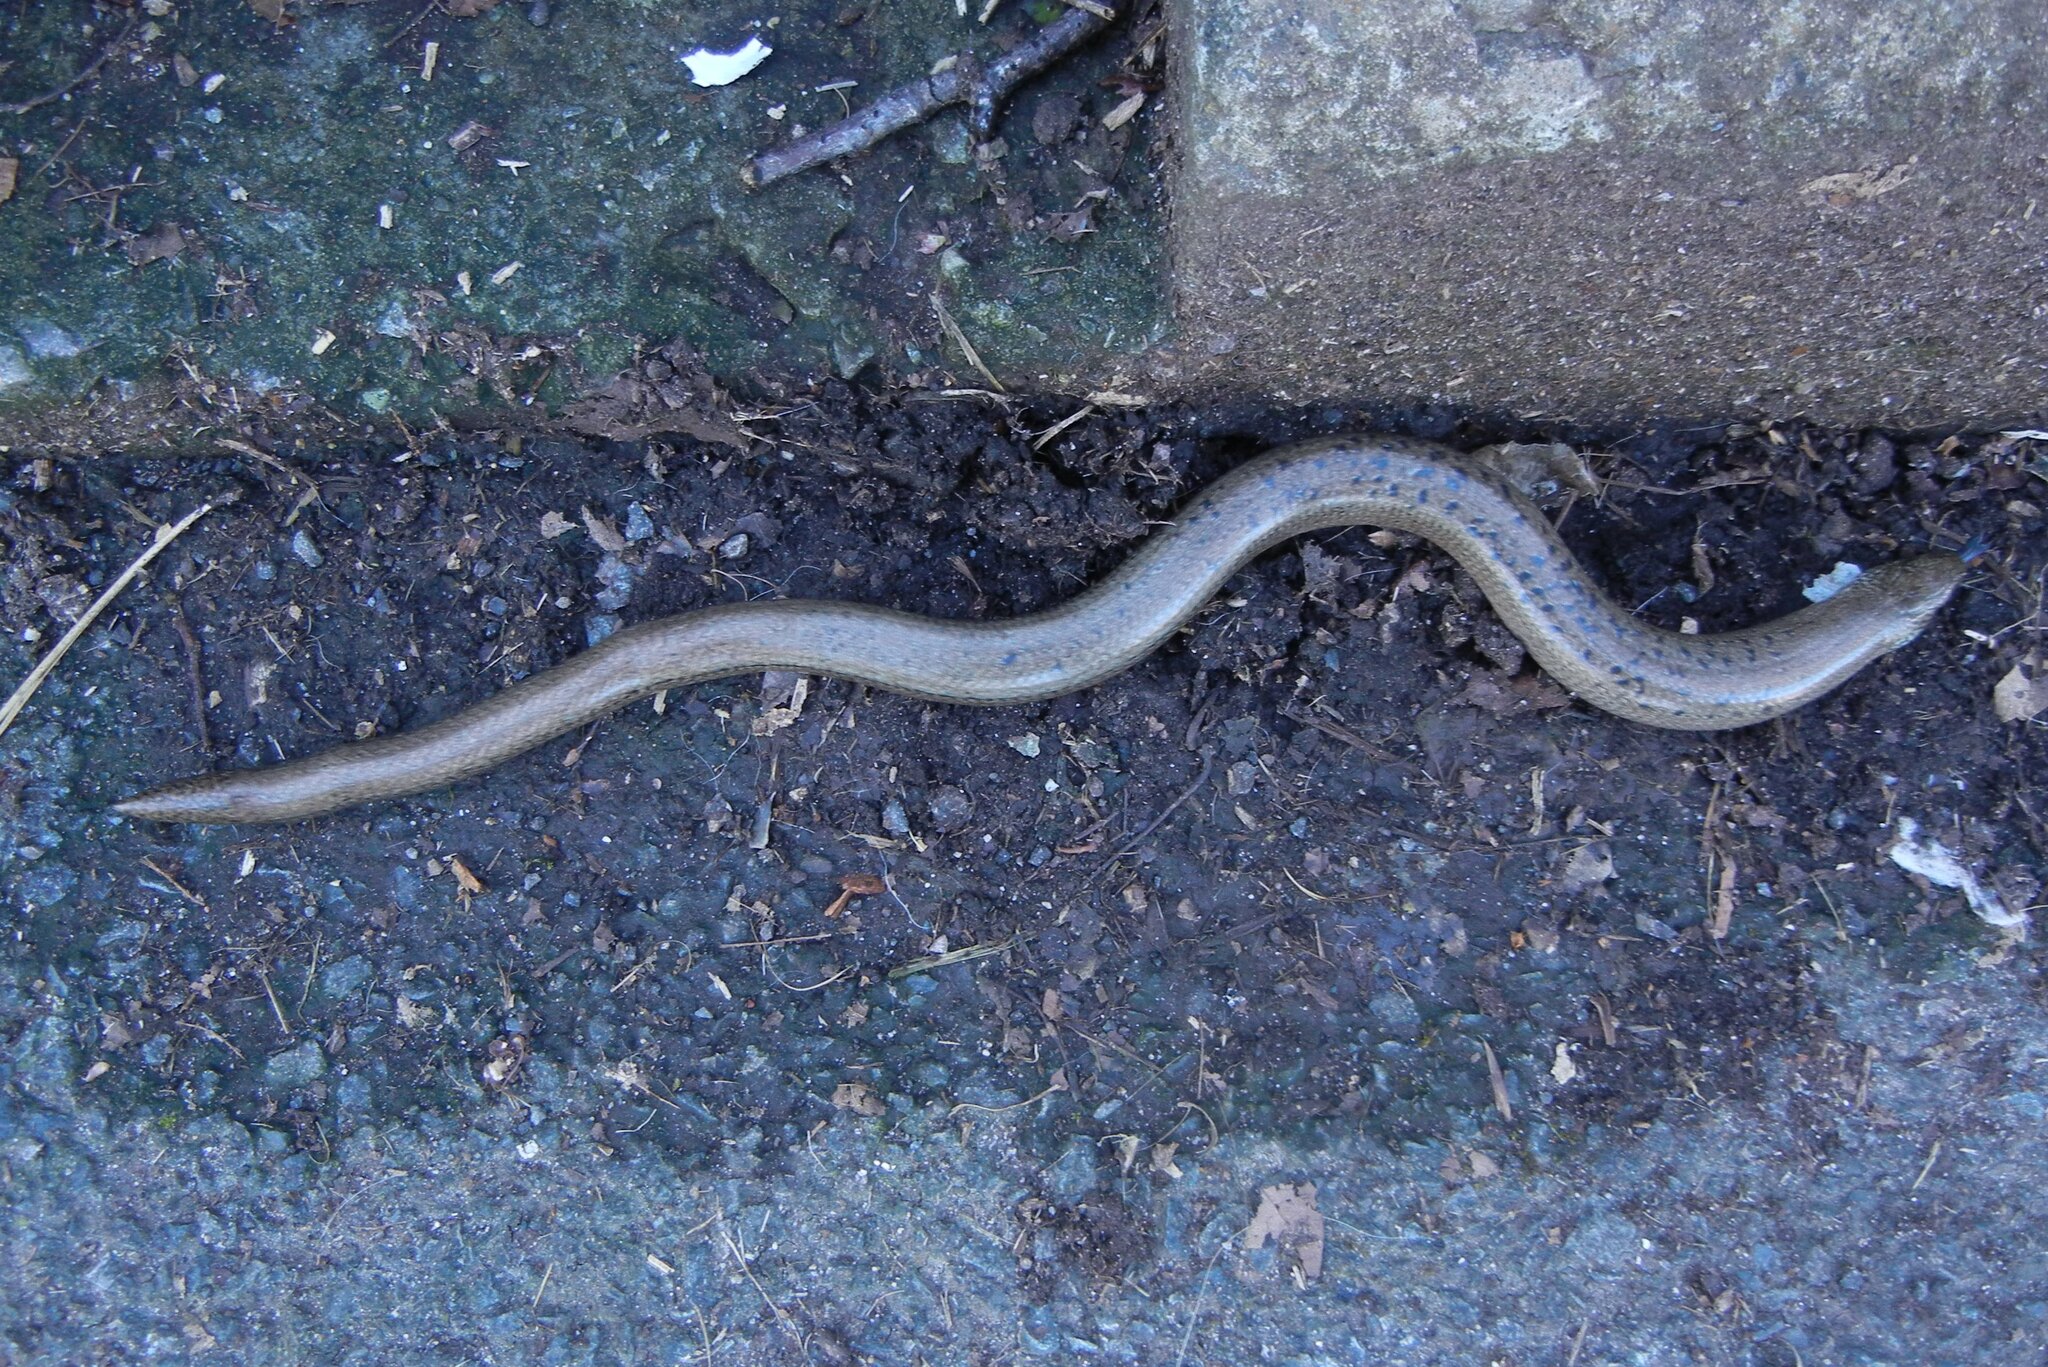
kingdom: Animalia
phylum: Chordata
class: Squamata
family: Anguidae
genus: Anguis
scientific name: Anguis fragilis
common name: Slow worm
